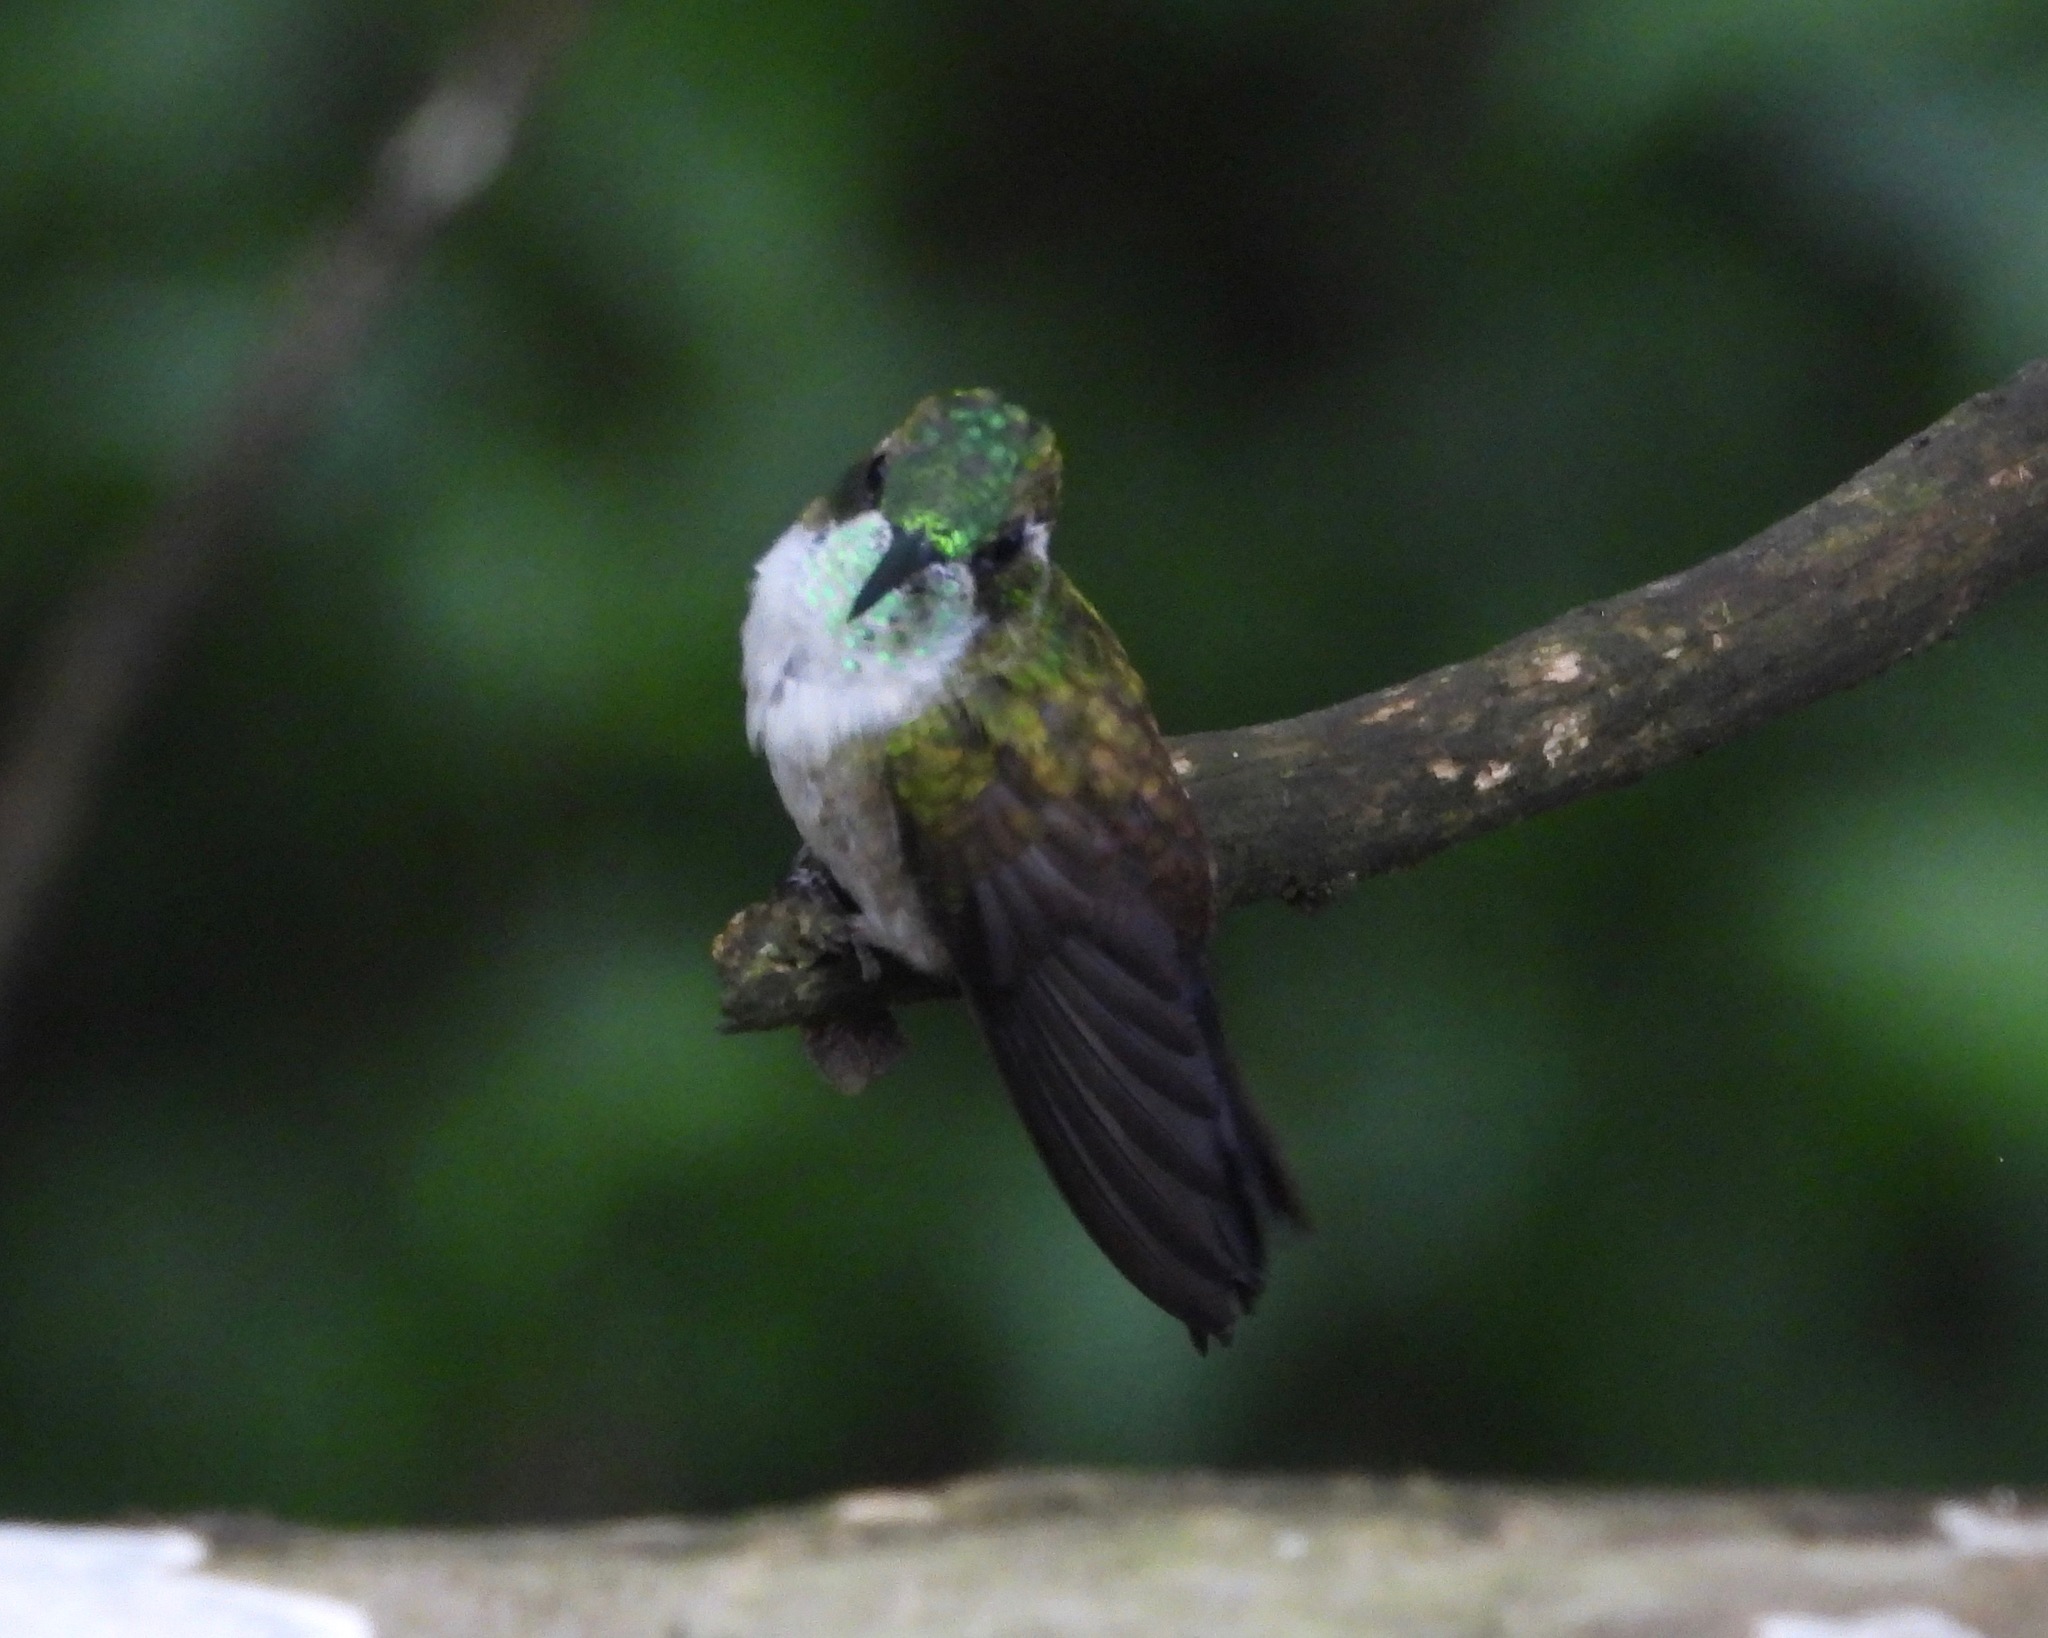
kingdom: Animalia
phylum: Chordata
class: Aves
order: Apodiformes
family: Trochilidae
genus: Lampornis
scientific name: Lampornis viridipallens
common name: Green-throated mountain-gem
